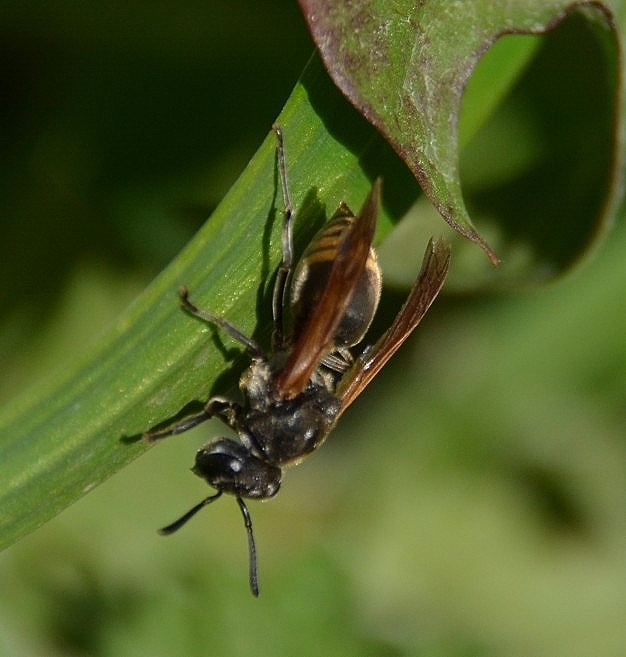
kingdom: Animalia
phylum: Arthropoda
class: Insecta
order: Hymenoptera
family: Vespidae
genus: Brachygastra
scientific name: Brachygastra lecheguana
